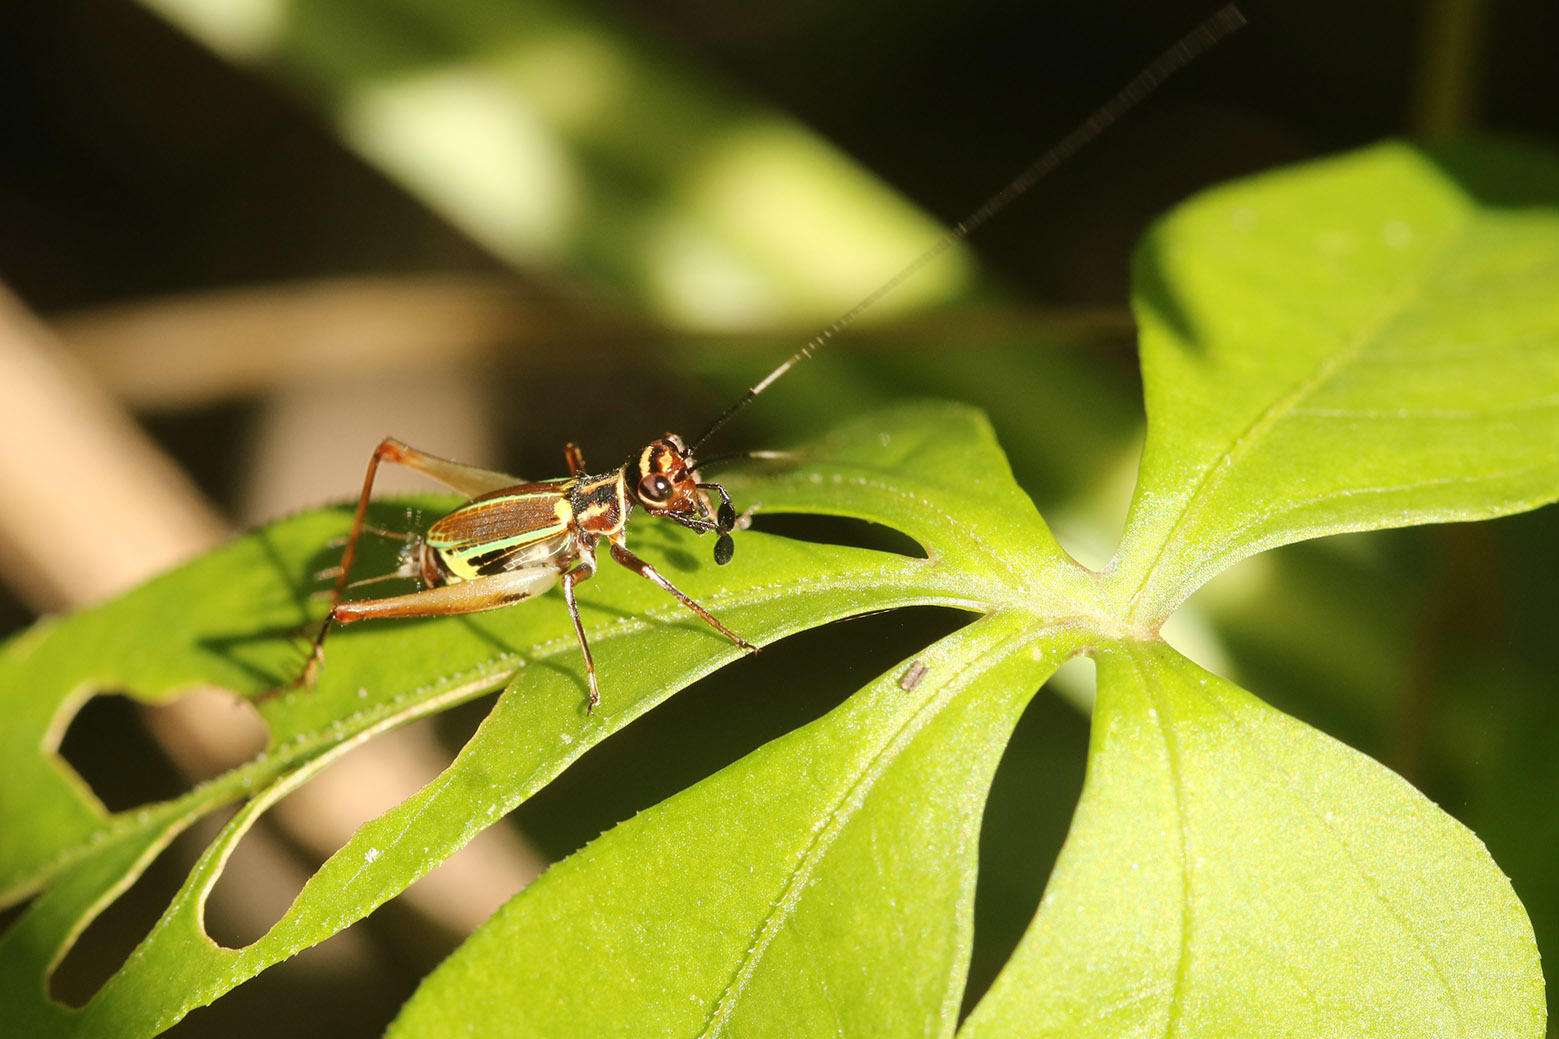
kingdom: Animalia
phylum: Arthropoda
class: Insecta
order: Orthoptera
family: Trigonidiidae
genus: Phylloscyrtus
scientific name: Phylloscyrtus amoenus
